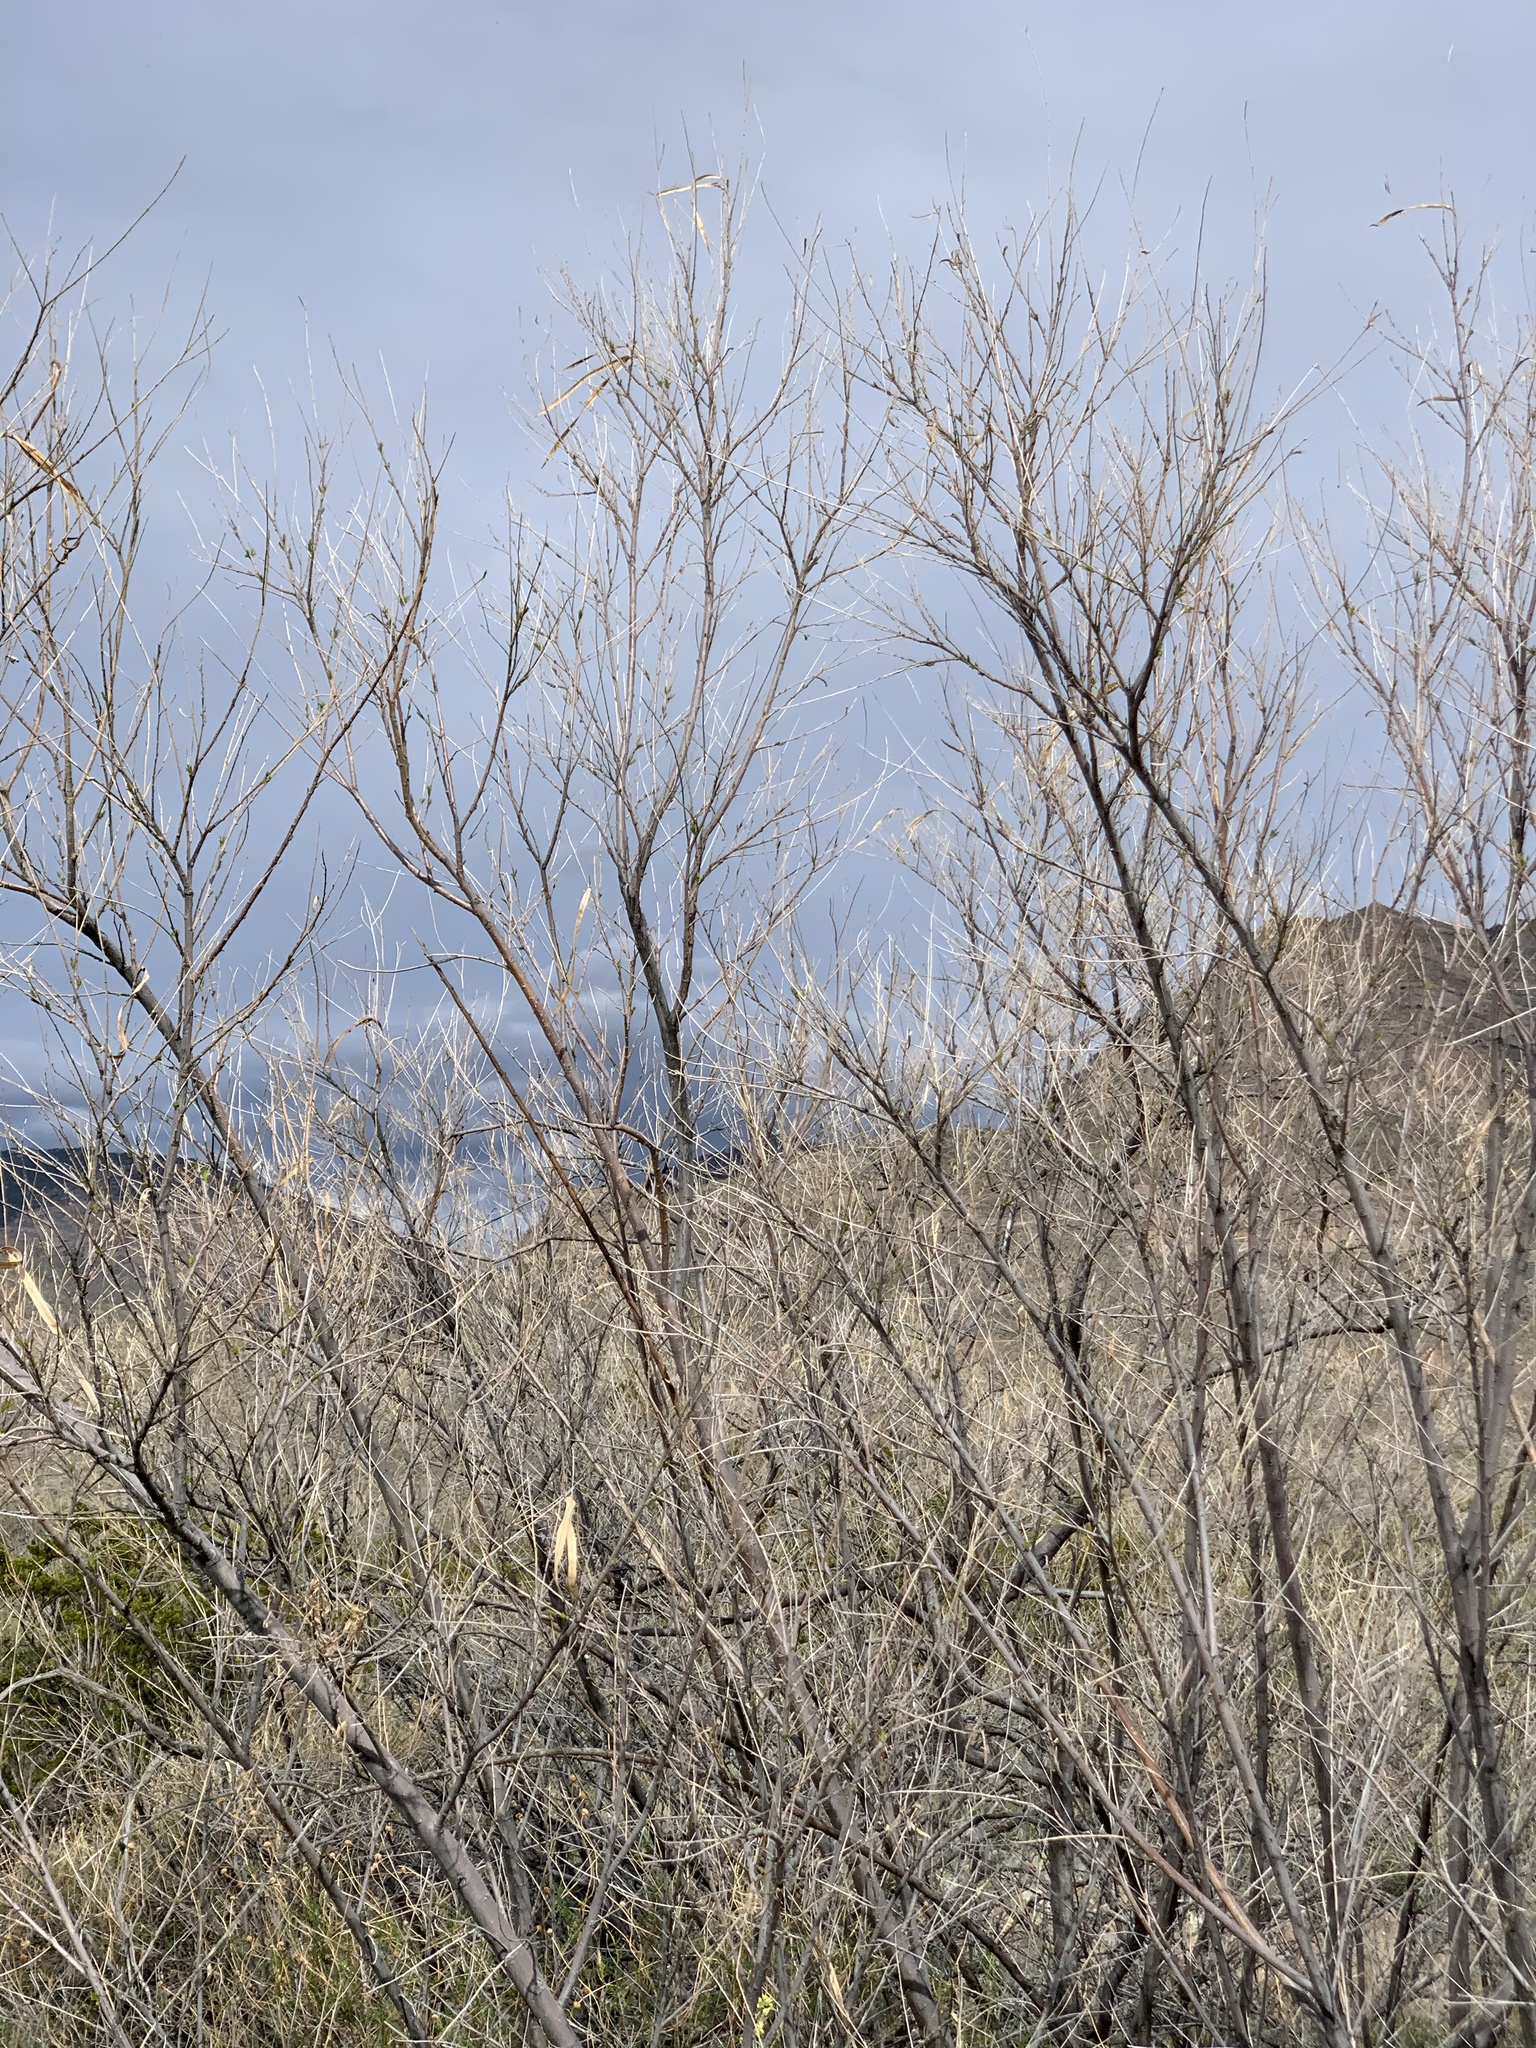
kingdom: Plantae
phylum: Tracheophyta
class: Magnoliopsida
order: Lamiales
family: Bignoniaceae
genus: Chilopsis
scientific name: Chilopsis linearis
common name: Desert-willow
